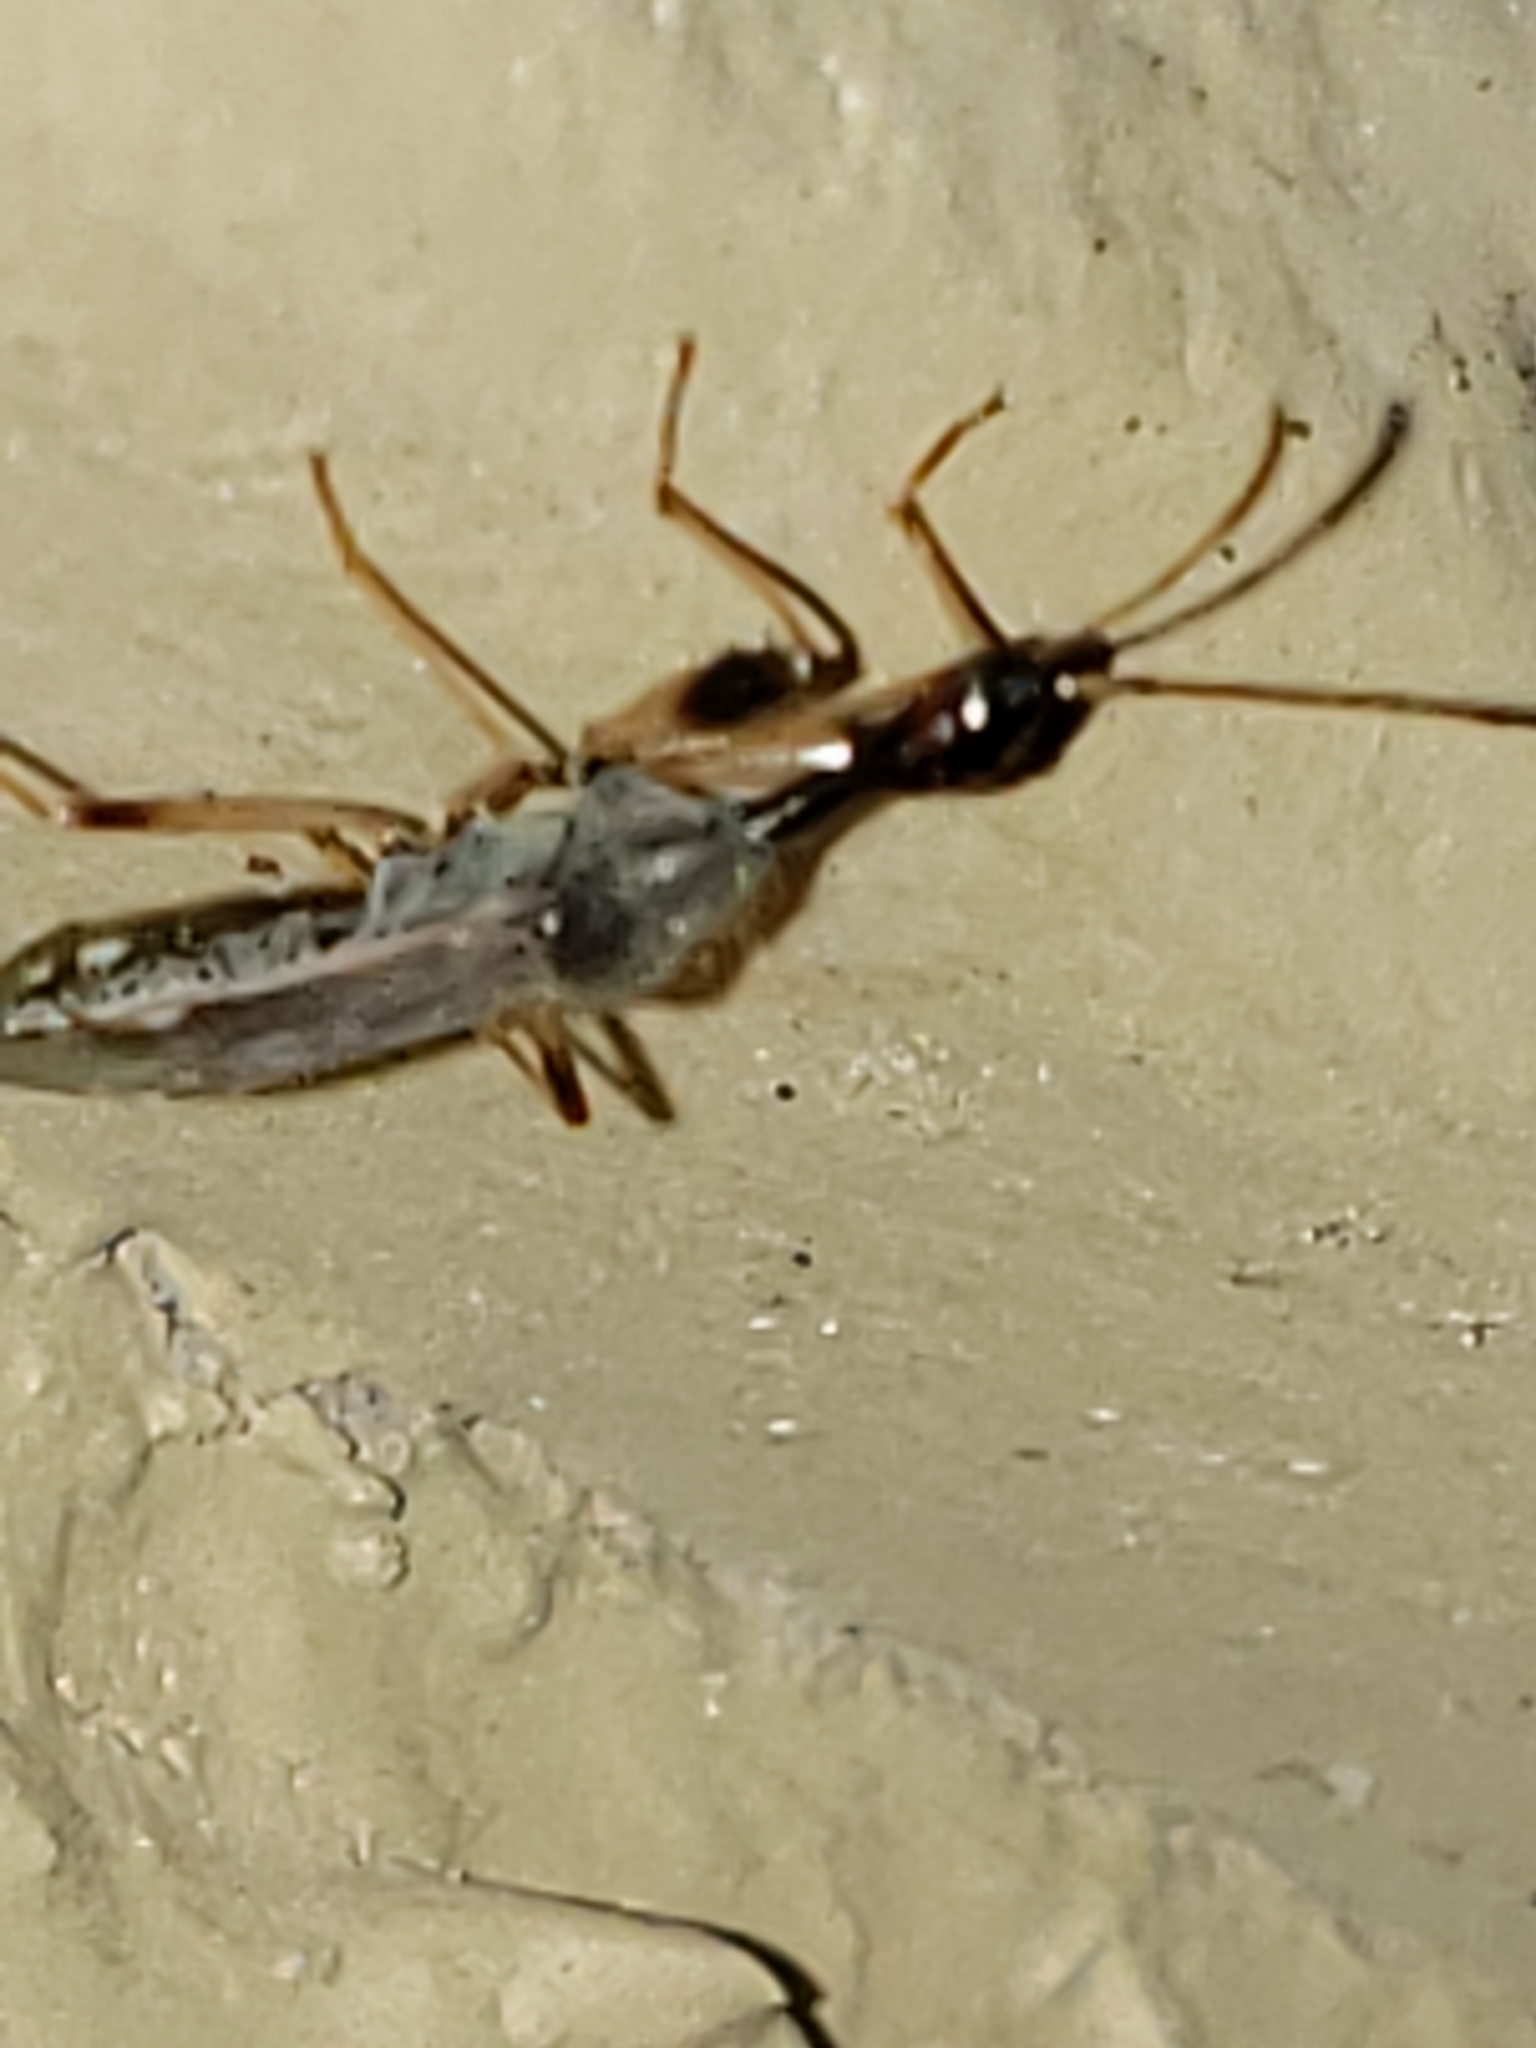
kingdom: Animalia
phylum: Arthropoda
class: Insecta
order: Hemiptera
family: Rhyparochromidae
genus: Myodocha
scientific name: Myodocha serripes
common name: Long-necked seed bug
